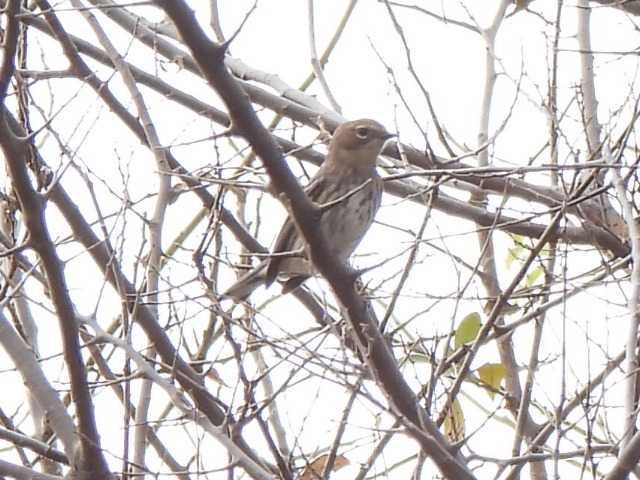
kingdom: Animalia
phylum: Chordata
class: Aves
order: Passeriformes
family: Parulidae
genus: Setophaga
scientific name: Setophaga coronata
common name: Myrtle warbler
